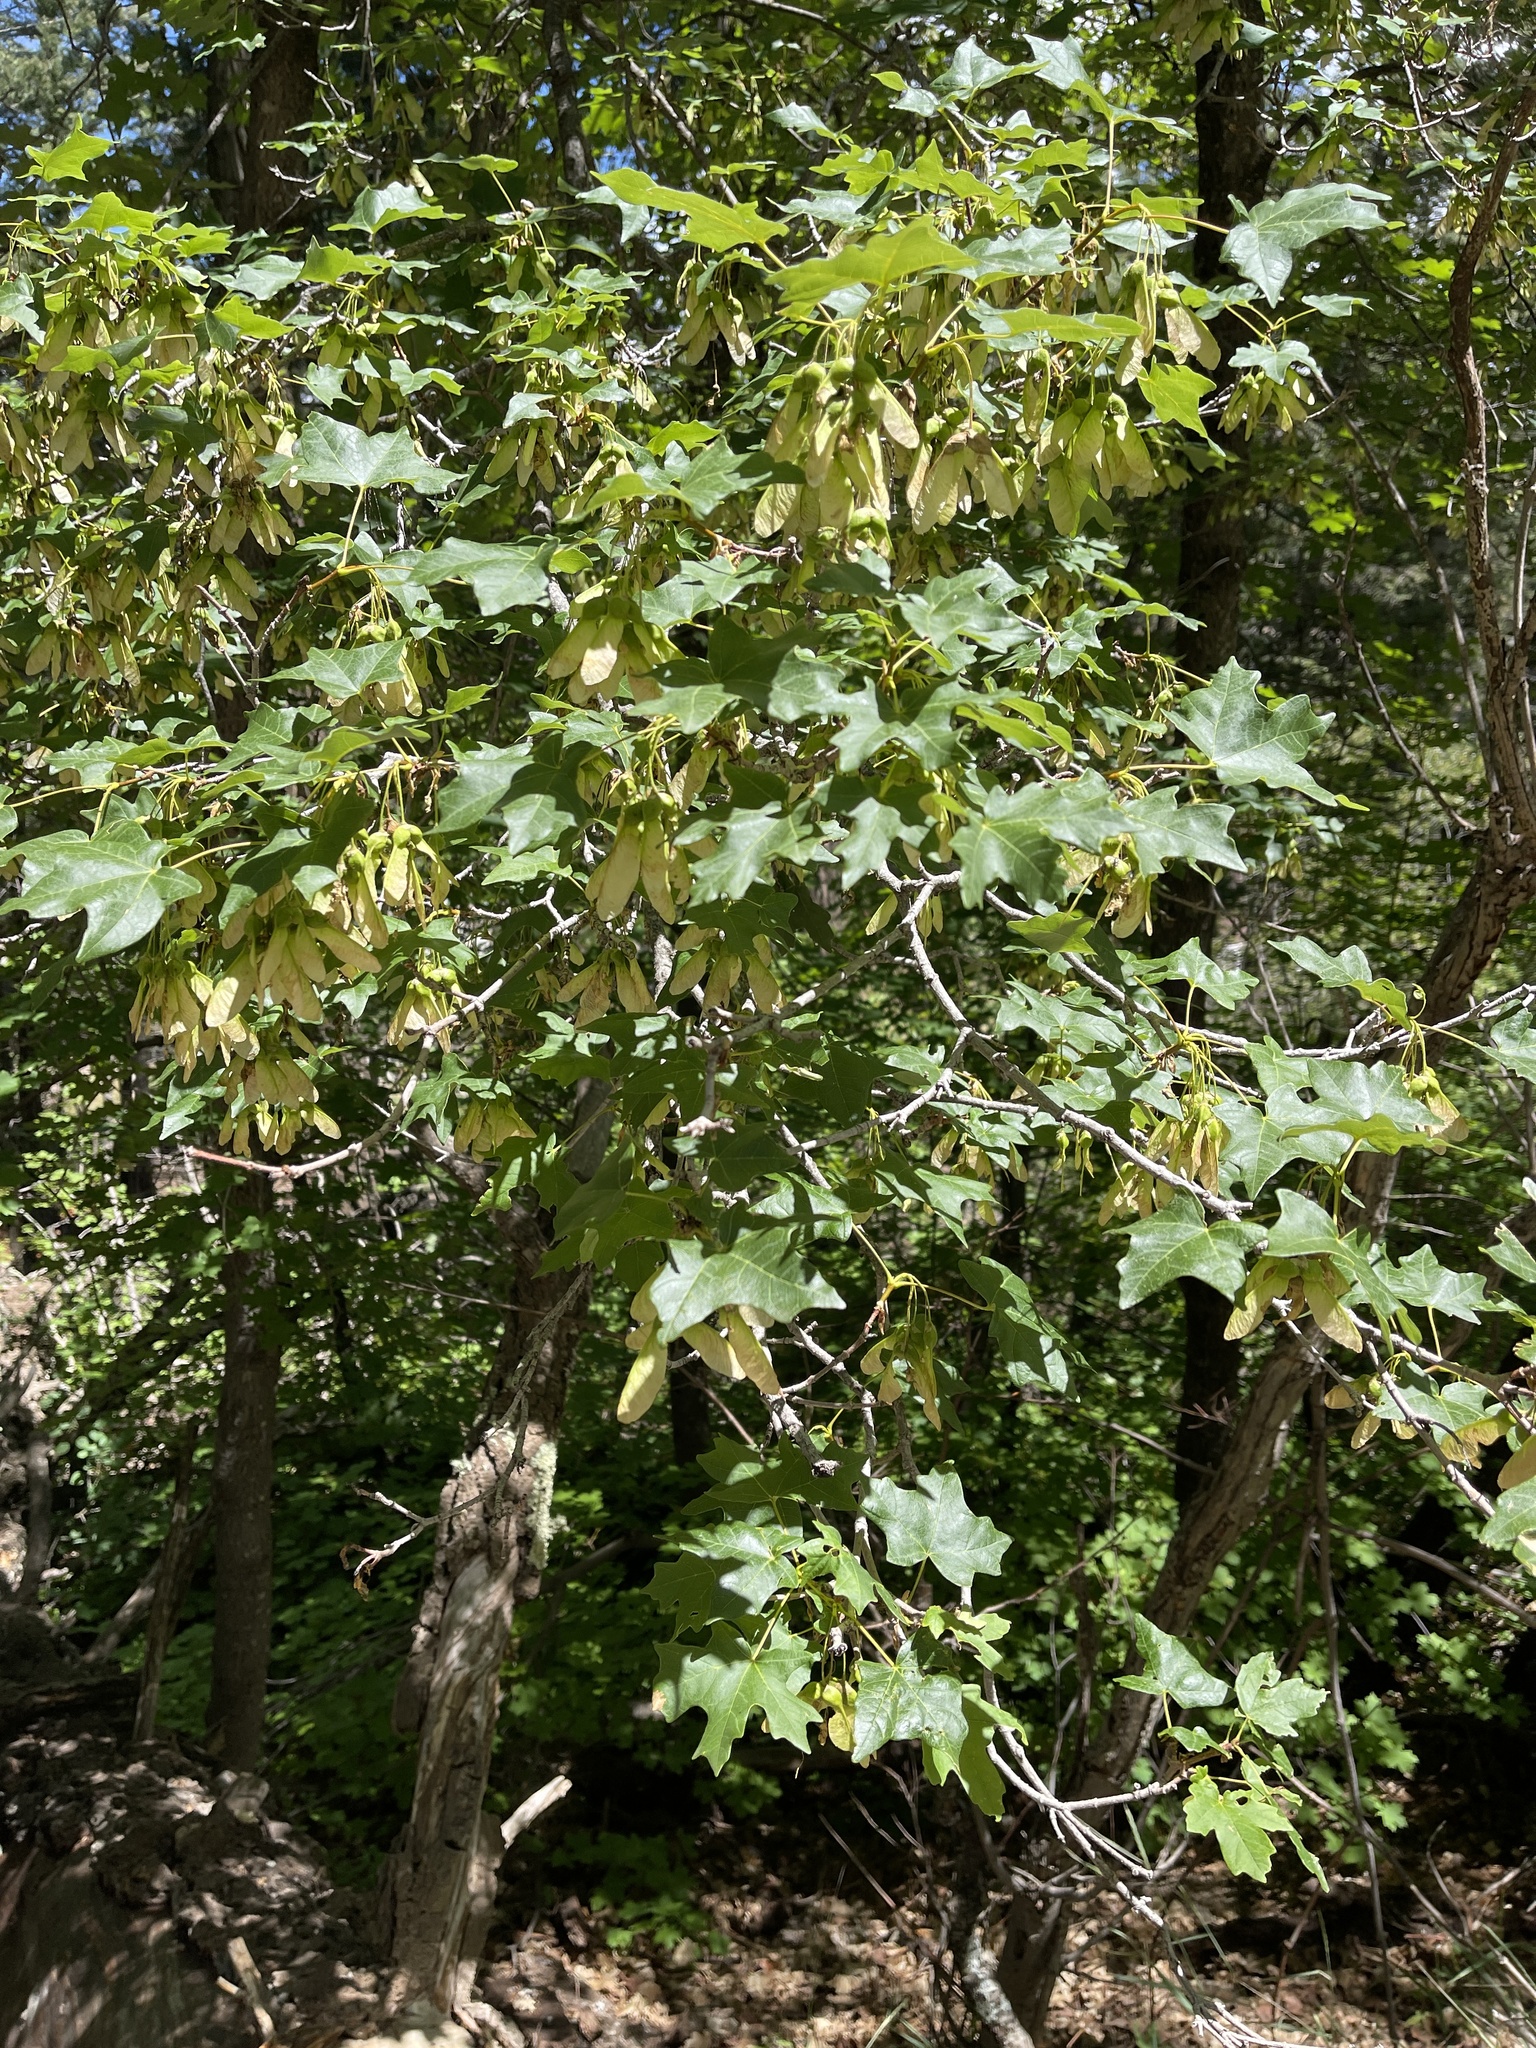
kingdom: Plantae
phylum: Tracheophyta
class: Magnoliopsida
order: Sapindales
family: Sapindaceae
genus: Acer
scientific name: Acer grandidentatum
